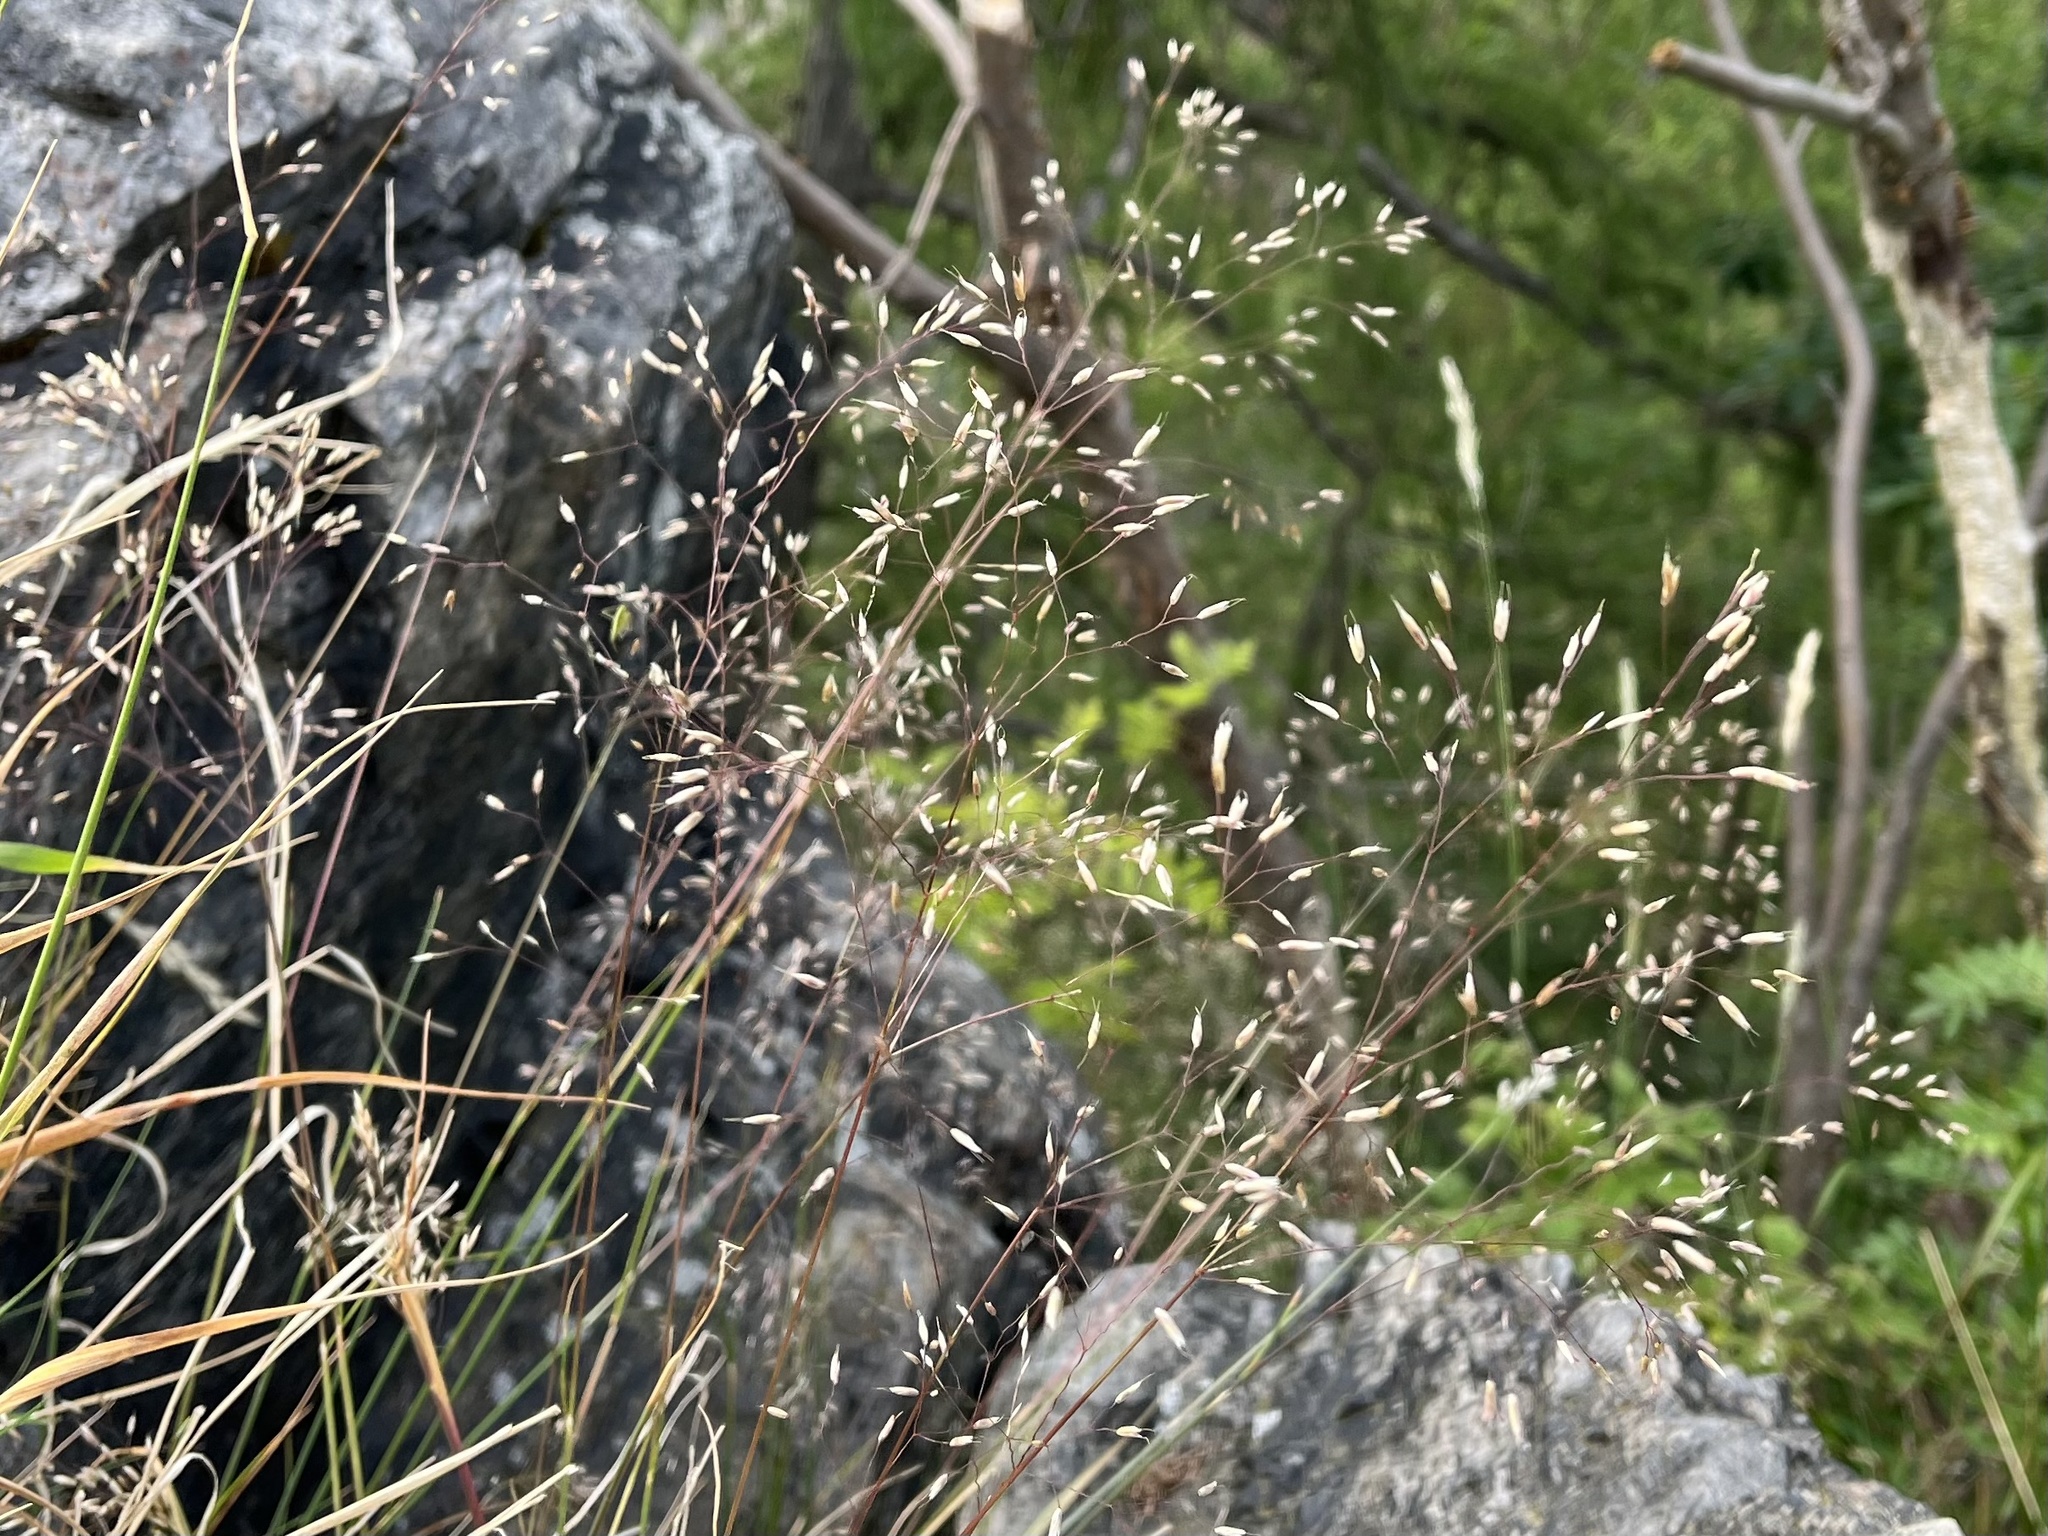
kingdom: Plantae
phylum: Tracheophyta
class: Liliopsida
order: Poales
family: Poaceae
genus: Avenella
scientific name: Avenella flexuosa
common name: Wavy hairgrass
